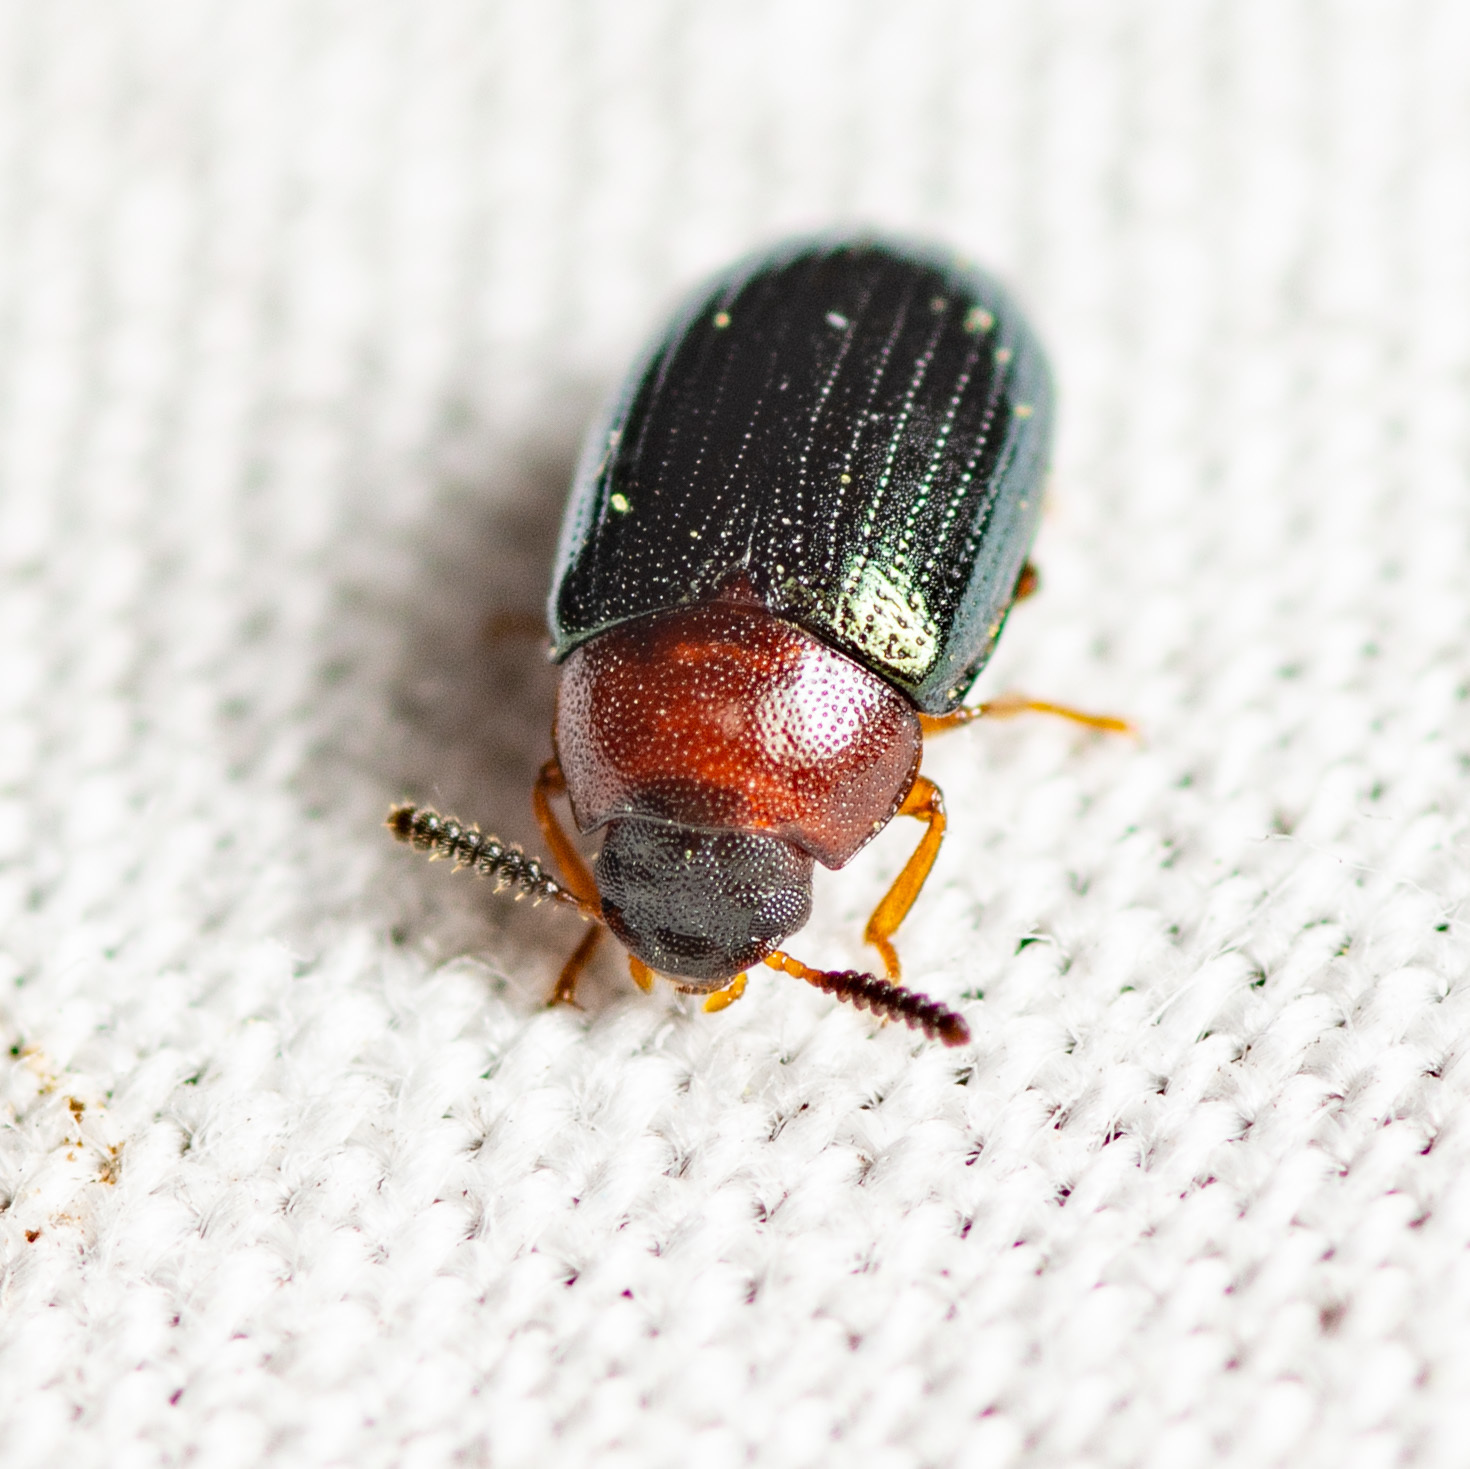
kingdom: Animalia
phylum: Arthropoda
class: Insecta
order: Coleoptera
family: Tenebrionidae
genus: Neomida
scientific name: Neomida bicornis
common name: Two-horned darkling beetle
